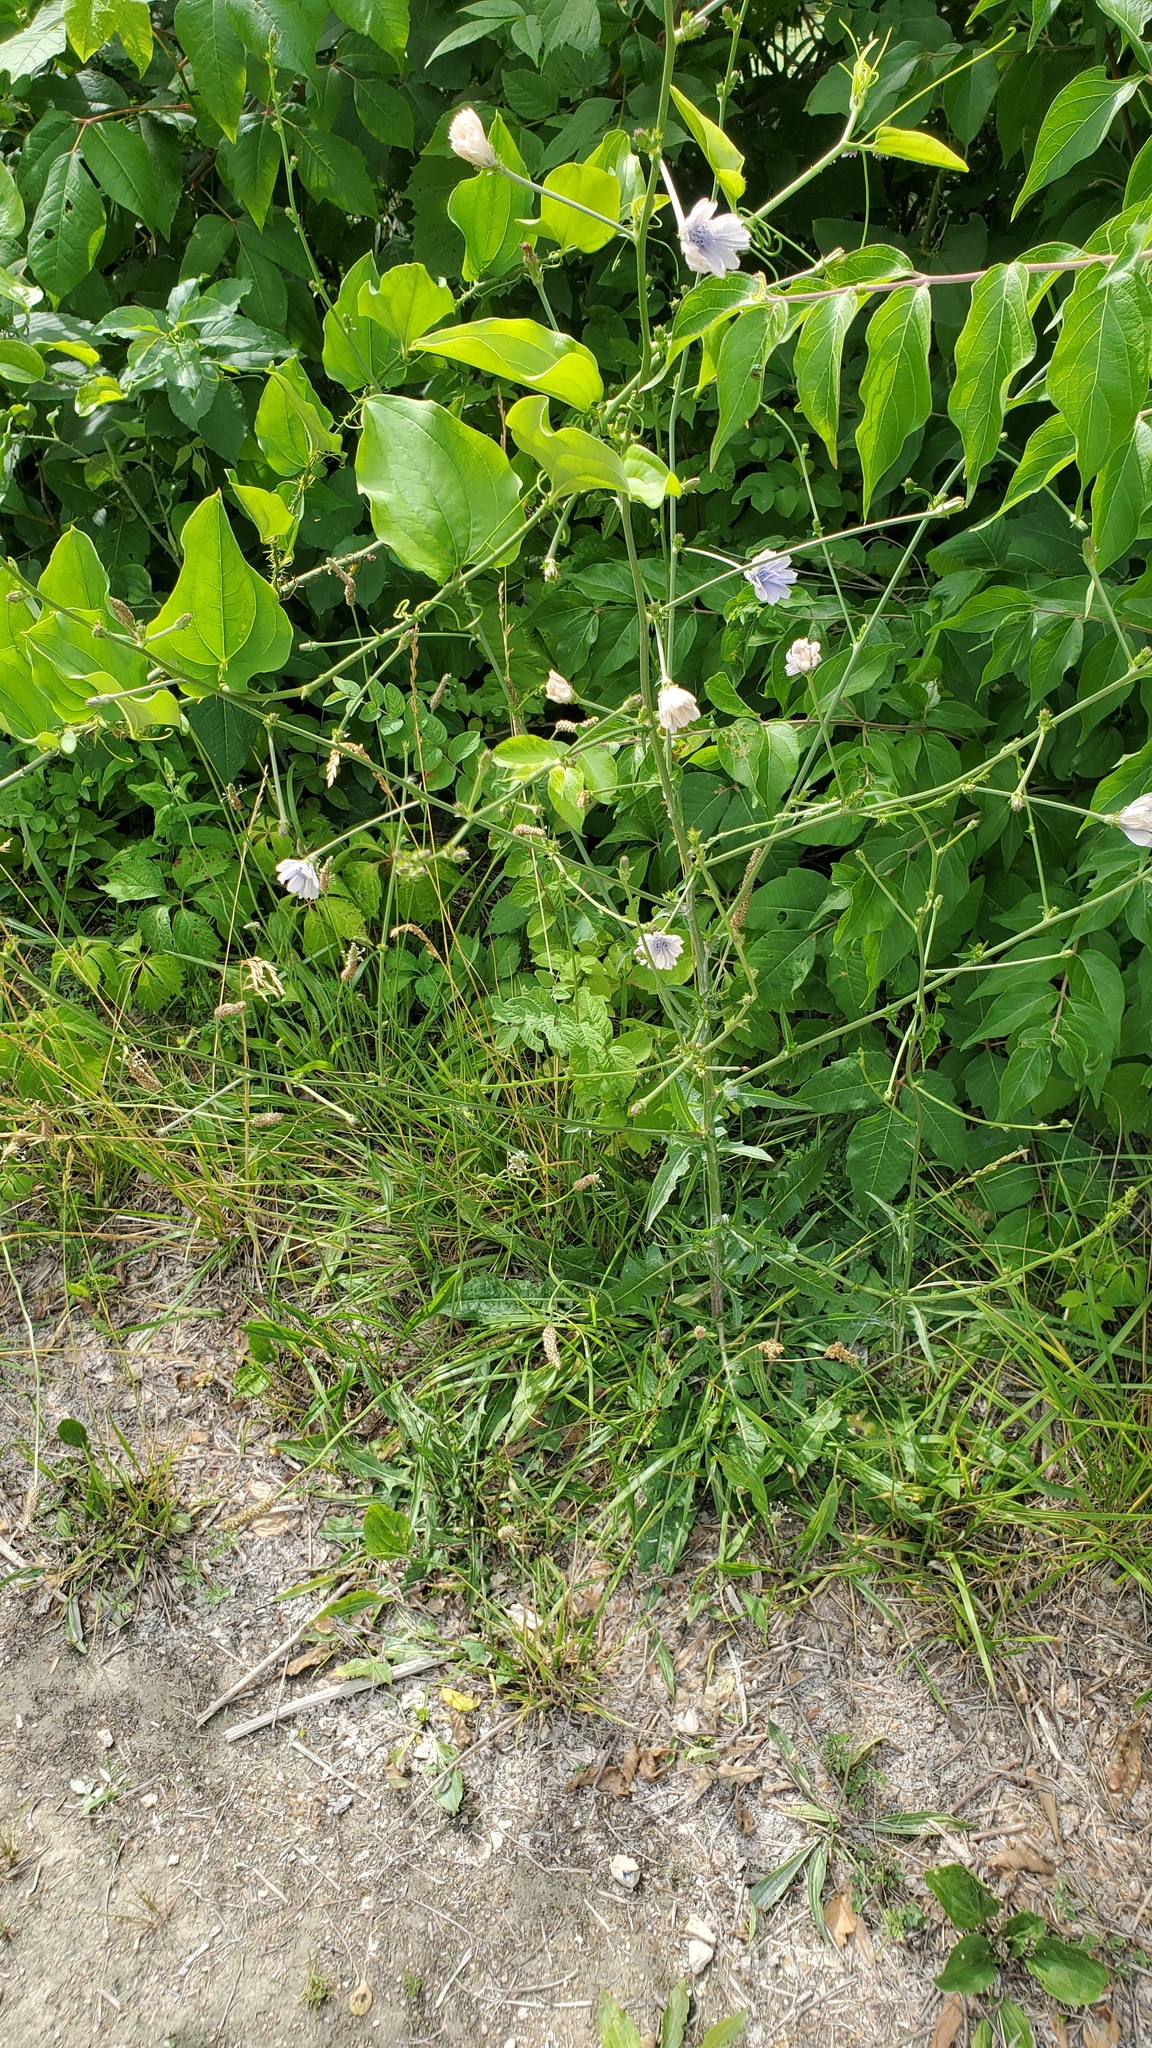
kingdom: Plantae
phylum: Tracheophyta
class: Magnoliopsida
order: Asterales
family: Asteraceae
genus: Cichorium
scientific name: Cichorium intybus
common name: Chicory
